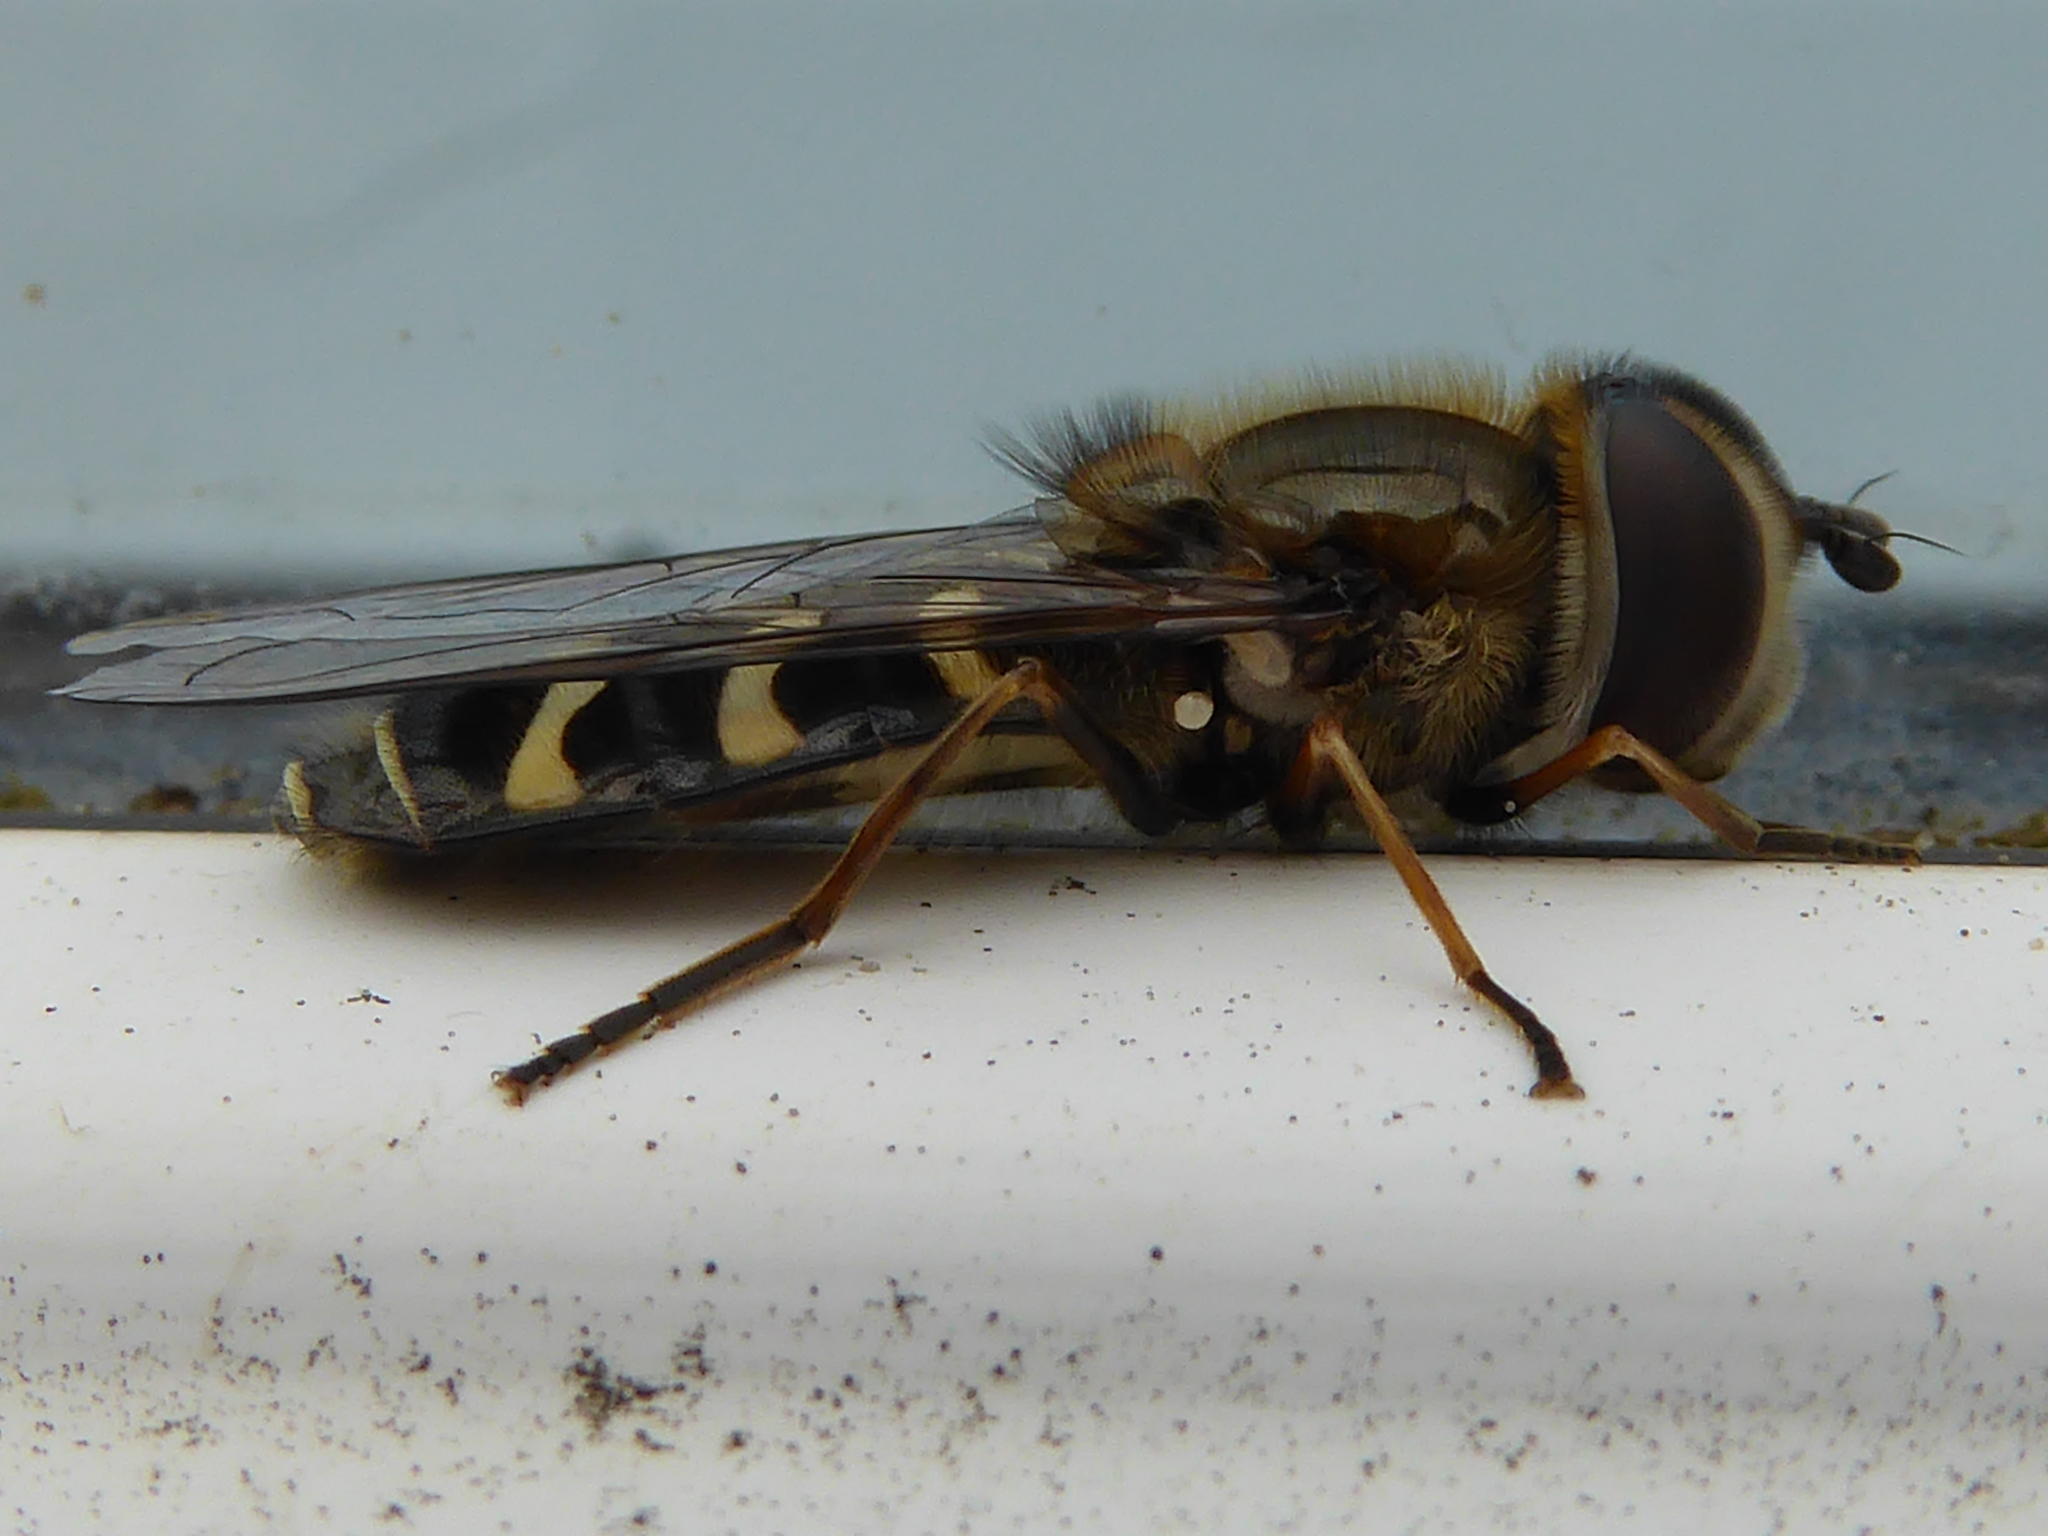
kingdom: Animalia
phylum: Arthropoda
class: Insecta
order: Diptera
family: Syrphidae
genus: Scaeva
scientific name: Scaeva pyrastri
